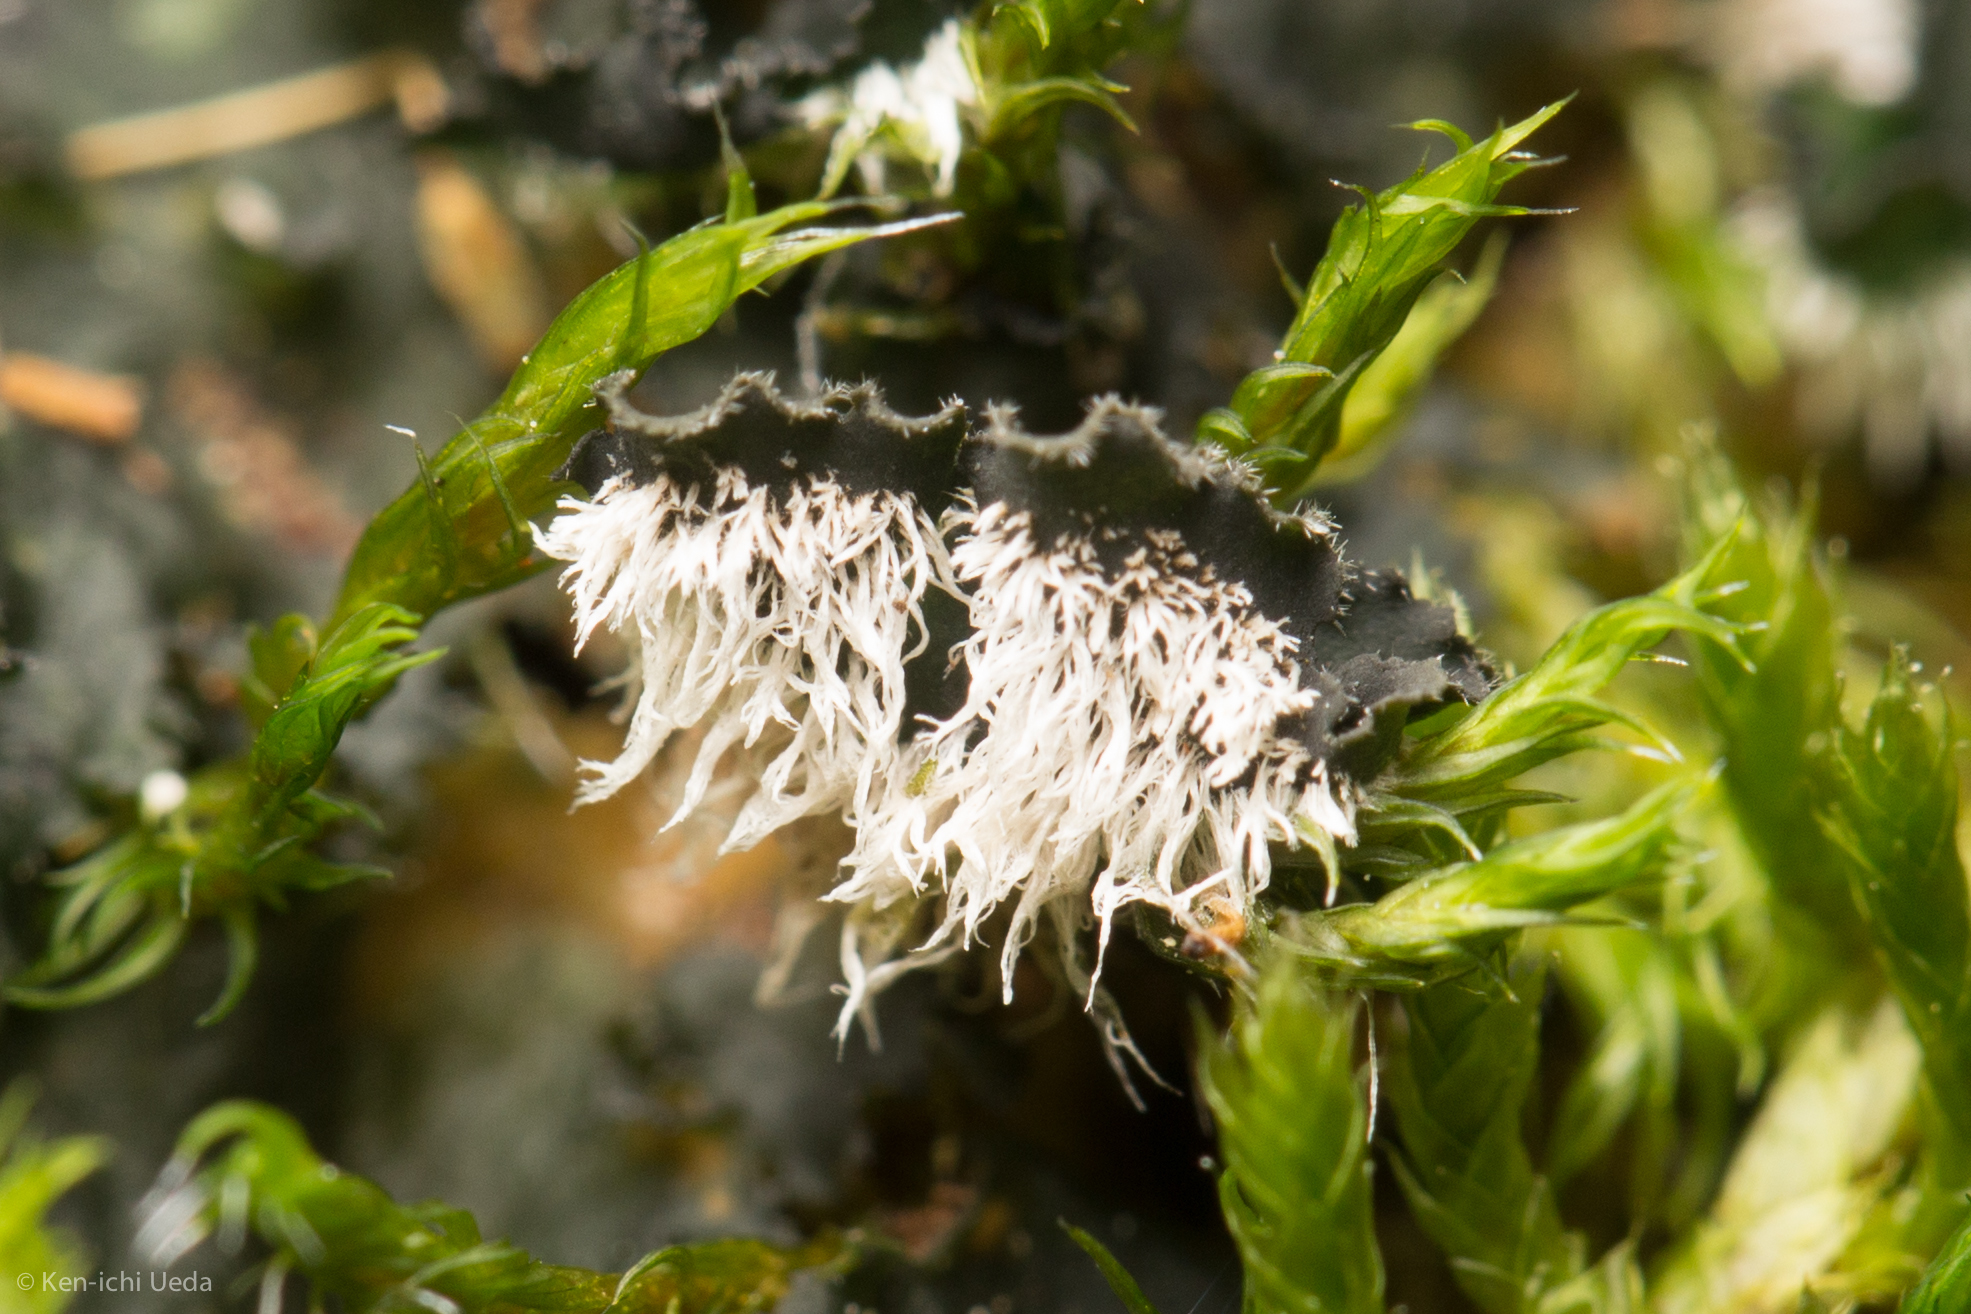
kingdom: Fungi
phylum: Ascomycota
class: Lecanoromycetes
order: Peltigerales
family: Massalongiaceae
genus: Leptochidium
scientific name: Leptochidium albociliatum
